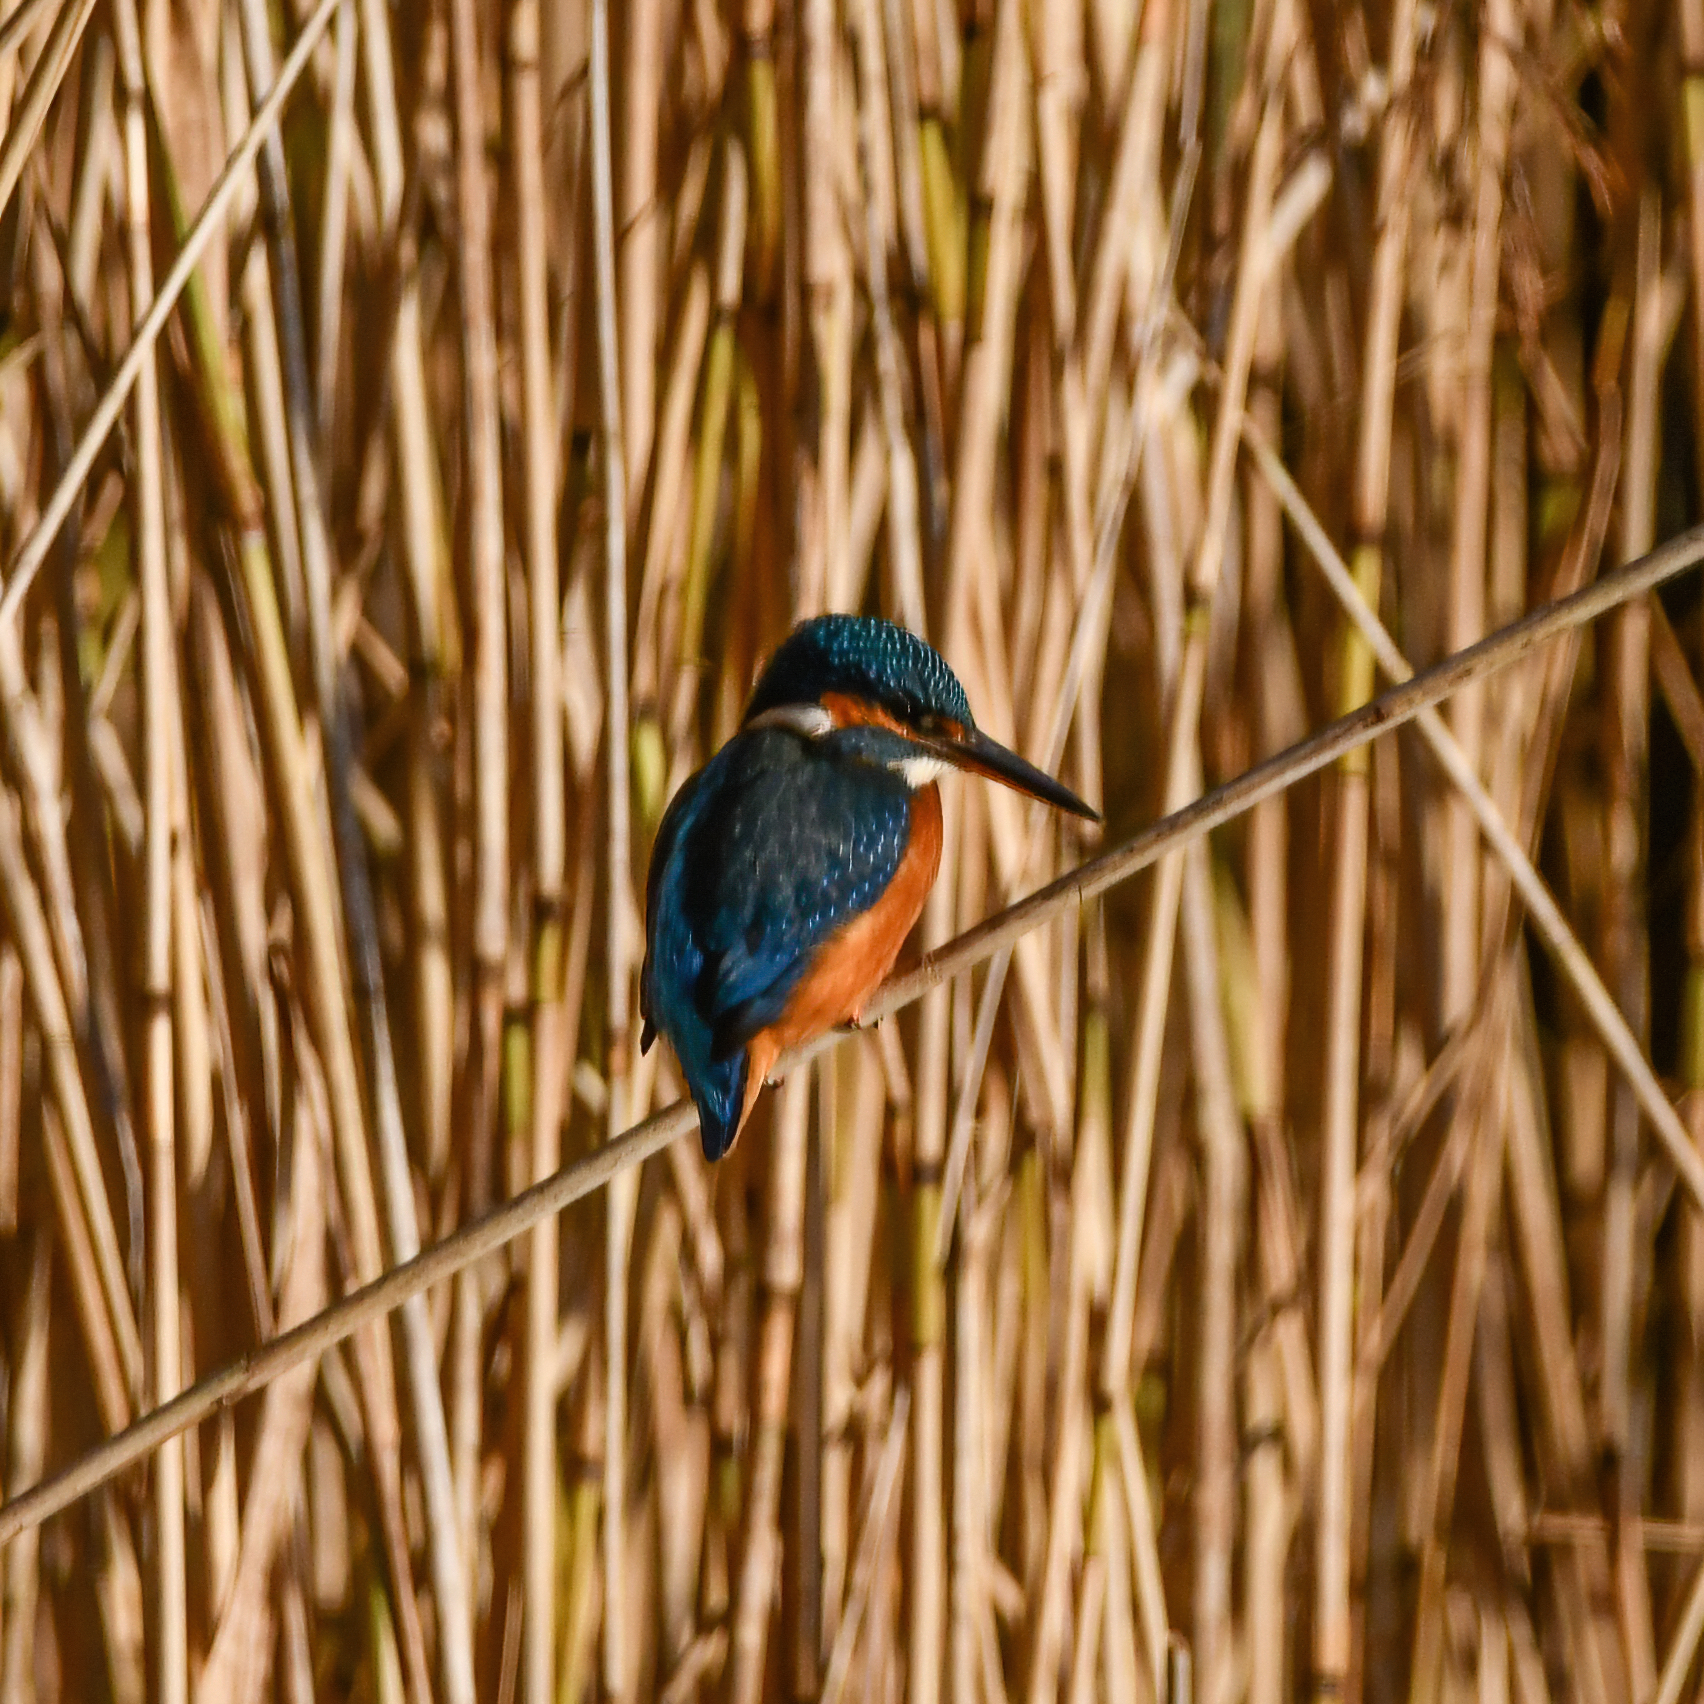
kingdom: Animalia
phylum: Chordata
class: Aves
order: Coraciiformes
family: Alcedinidae
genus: Alcedo
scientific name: Alcedo atthis
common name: Common kingfisher
